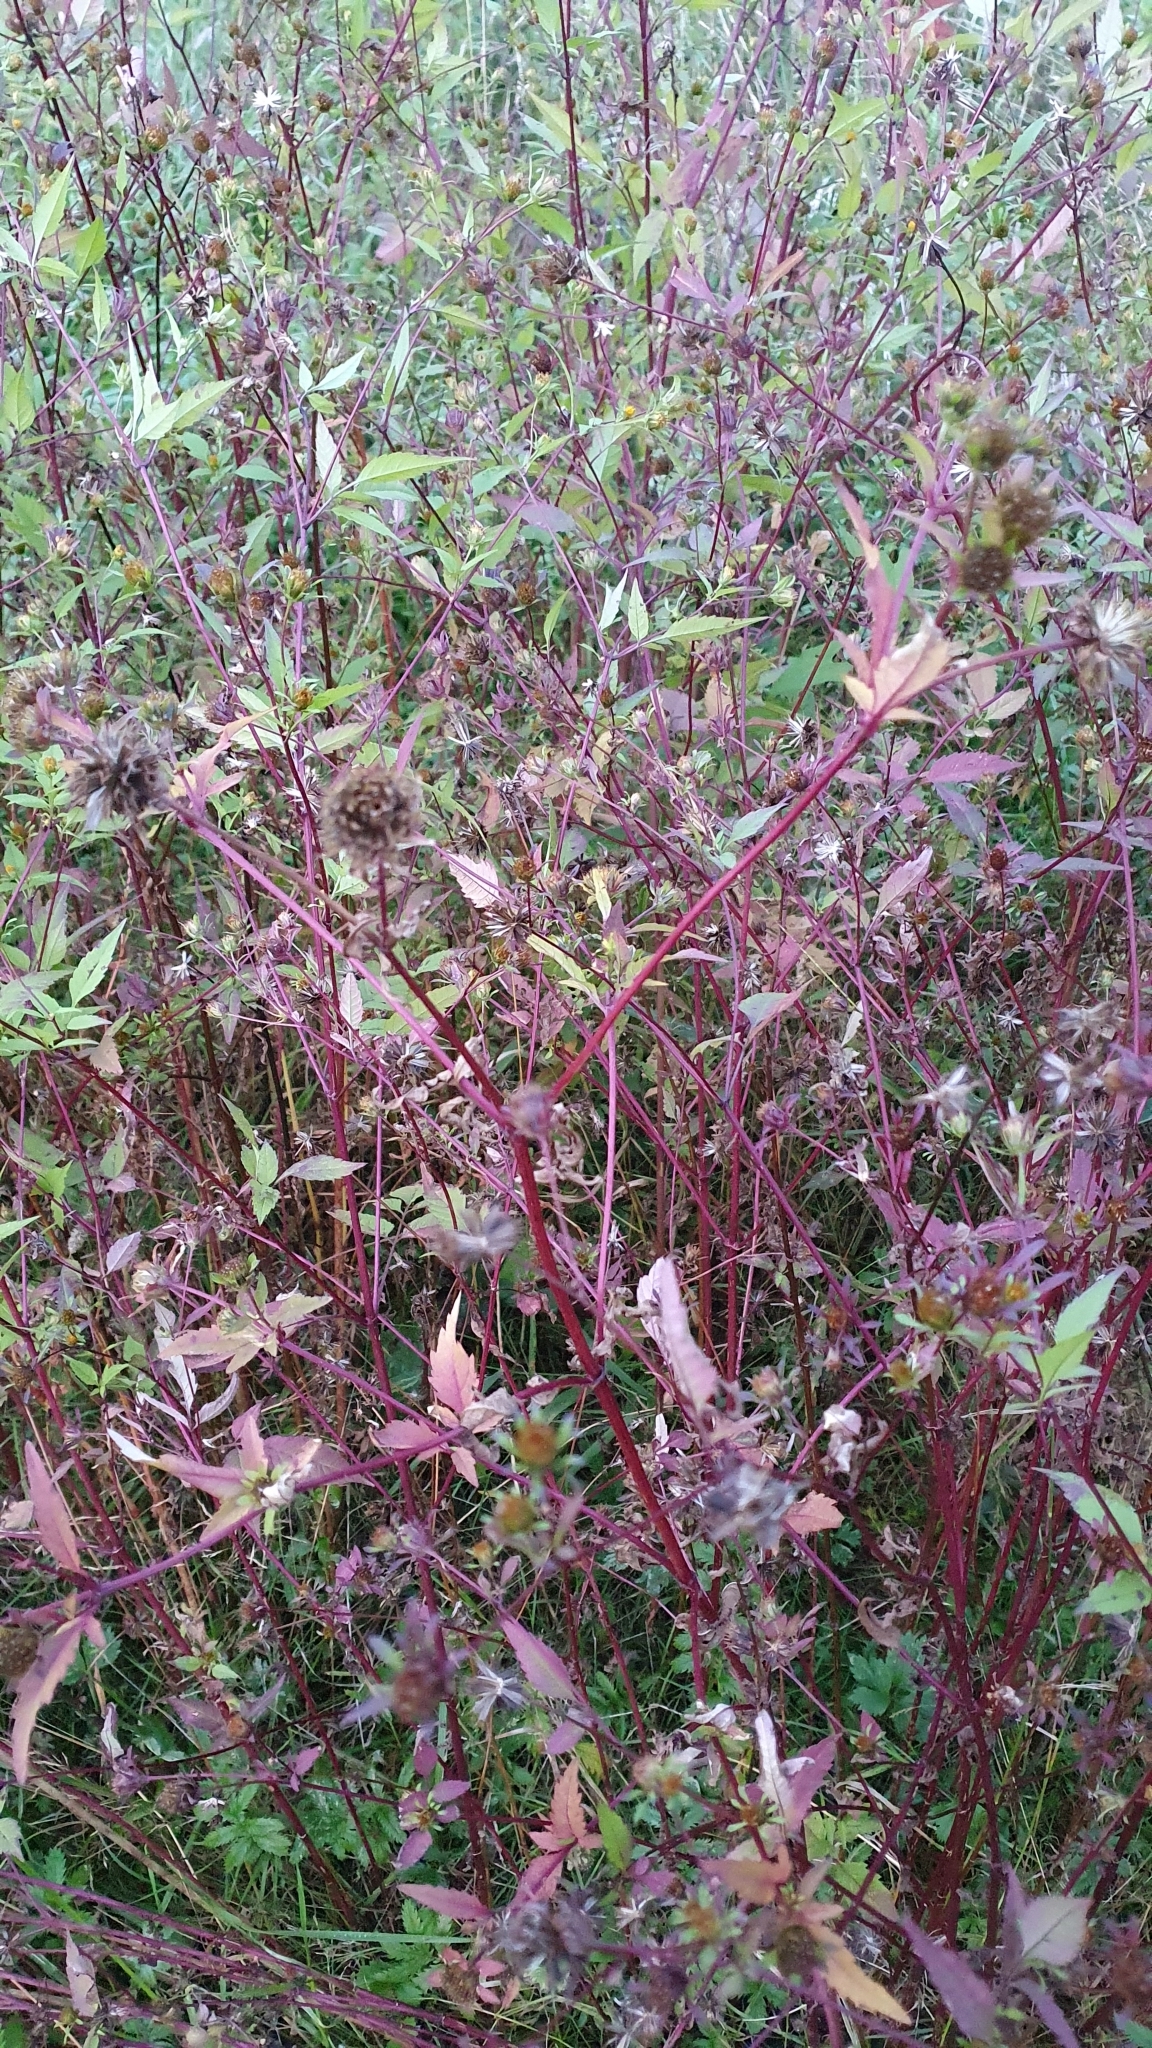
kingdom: Plantae
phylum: Tracheophyta
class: Magnoliopsida
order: Asterales
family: Asteraceae
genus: Bidens
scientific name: Bidens frondosa
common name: Beggarticks
